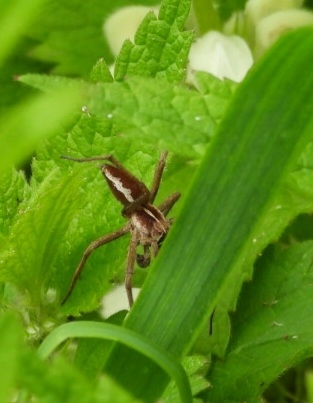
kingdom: Animalia
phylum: Arthropoda
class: Arachnida
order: Araneae
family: Pisauridae
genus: Pisaura
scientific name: Pisaura mirabilis
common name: Tent spider
